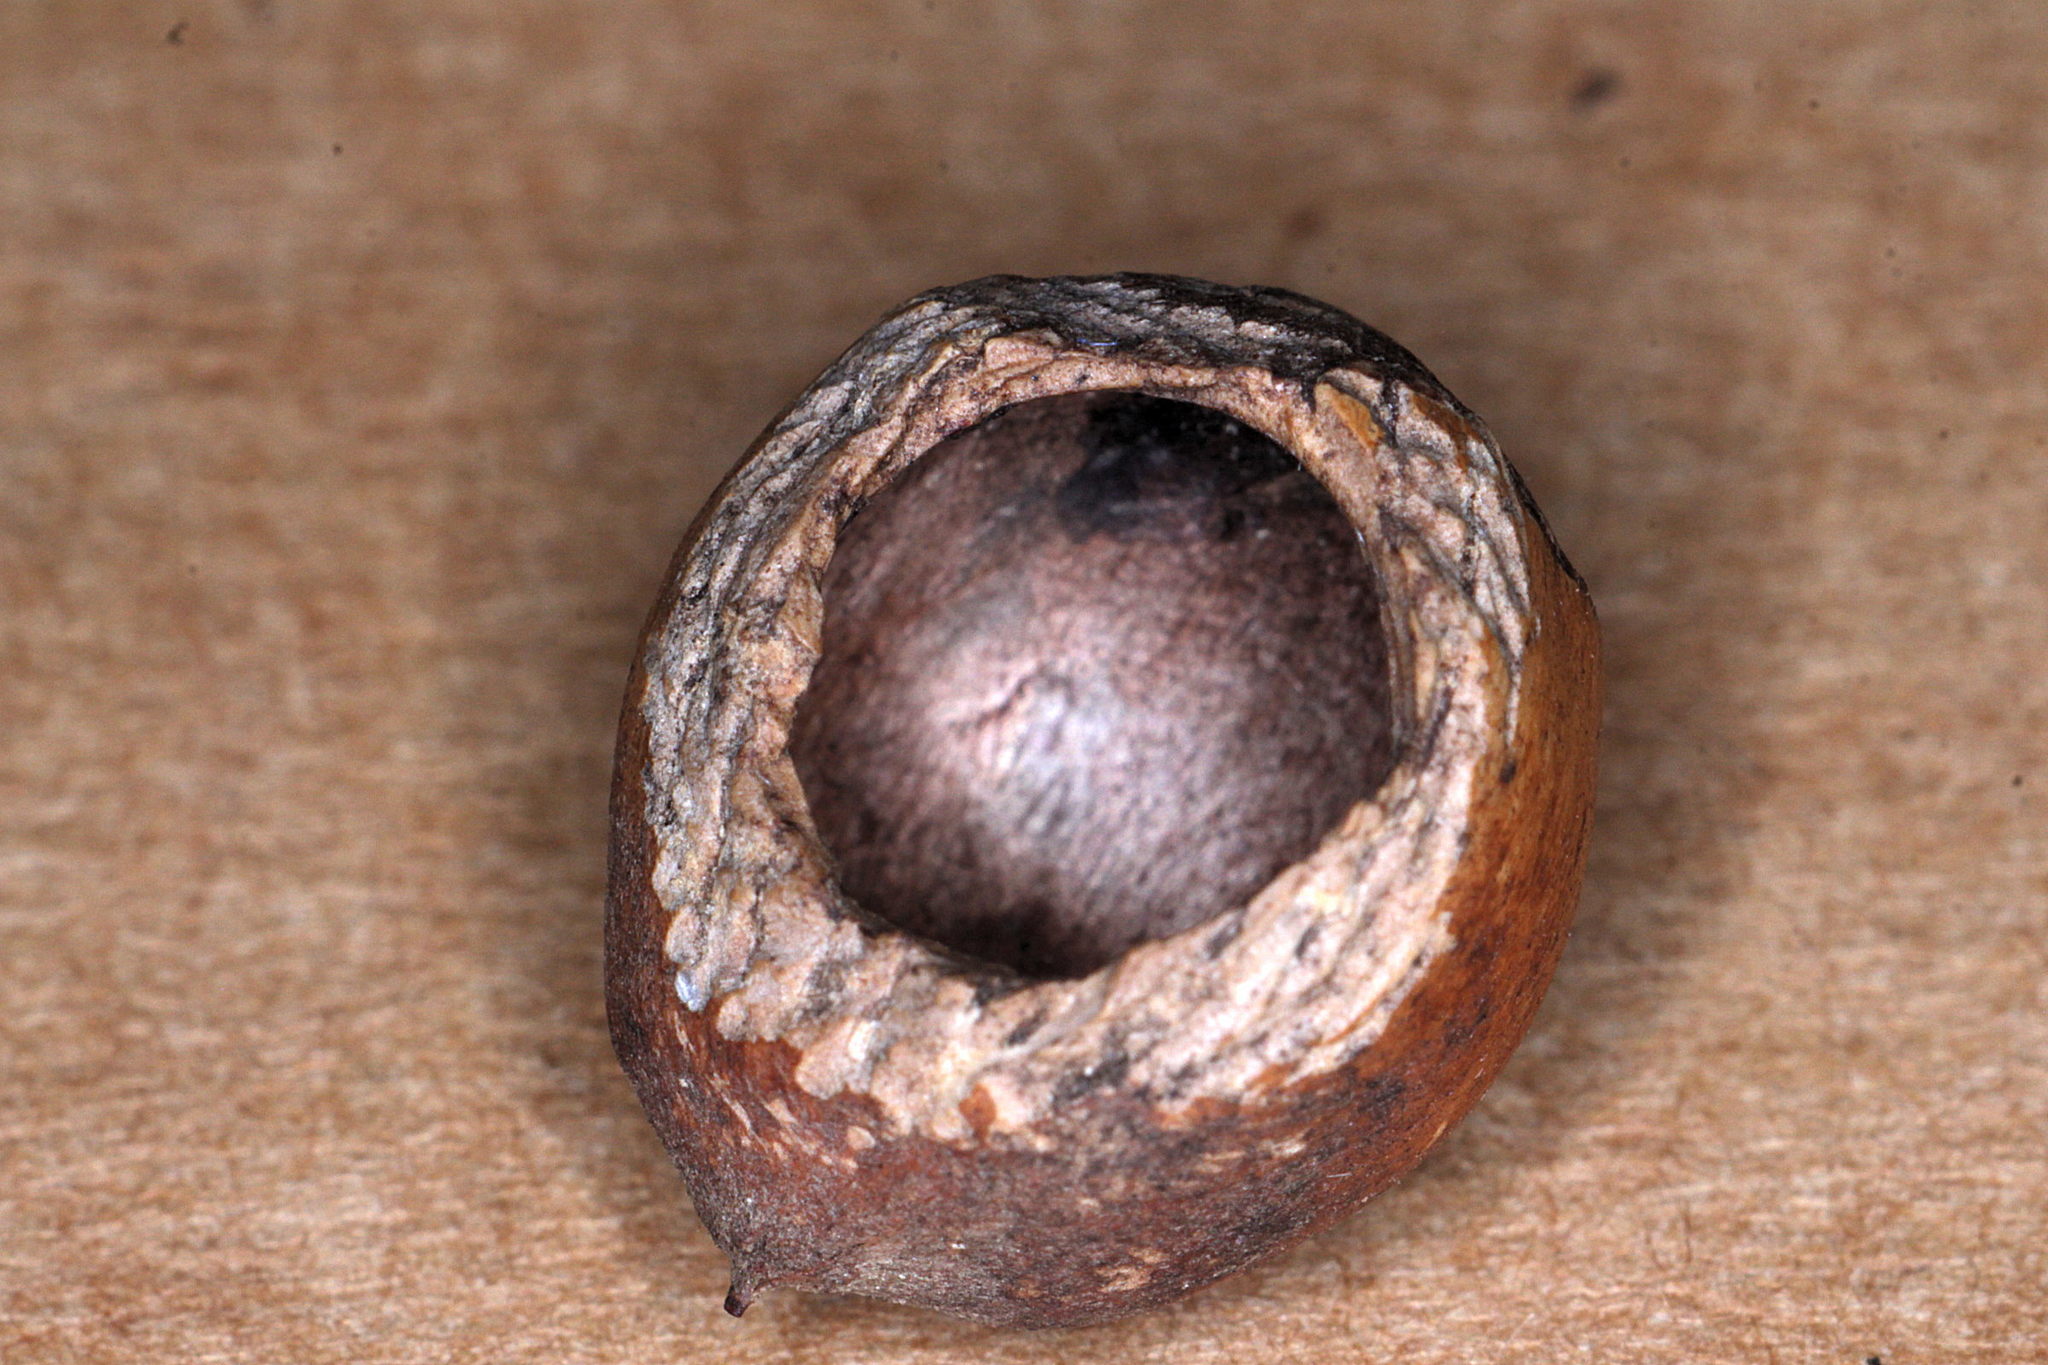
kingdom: Animalia
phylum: Chordata
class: Mammalia
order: Rodentia
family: Gliridae
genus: Muscardinus
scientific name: Muscardinus avellanarius
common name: Hazel dormouse
